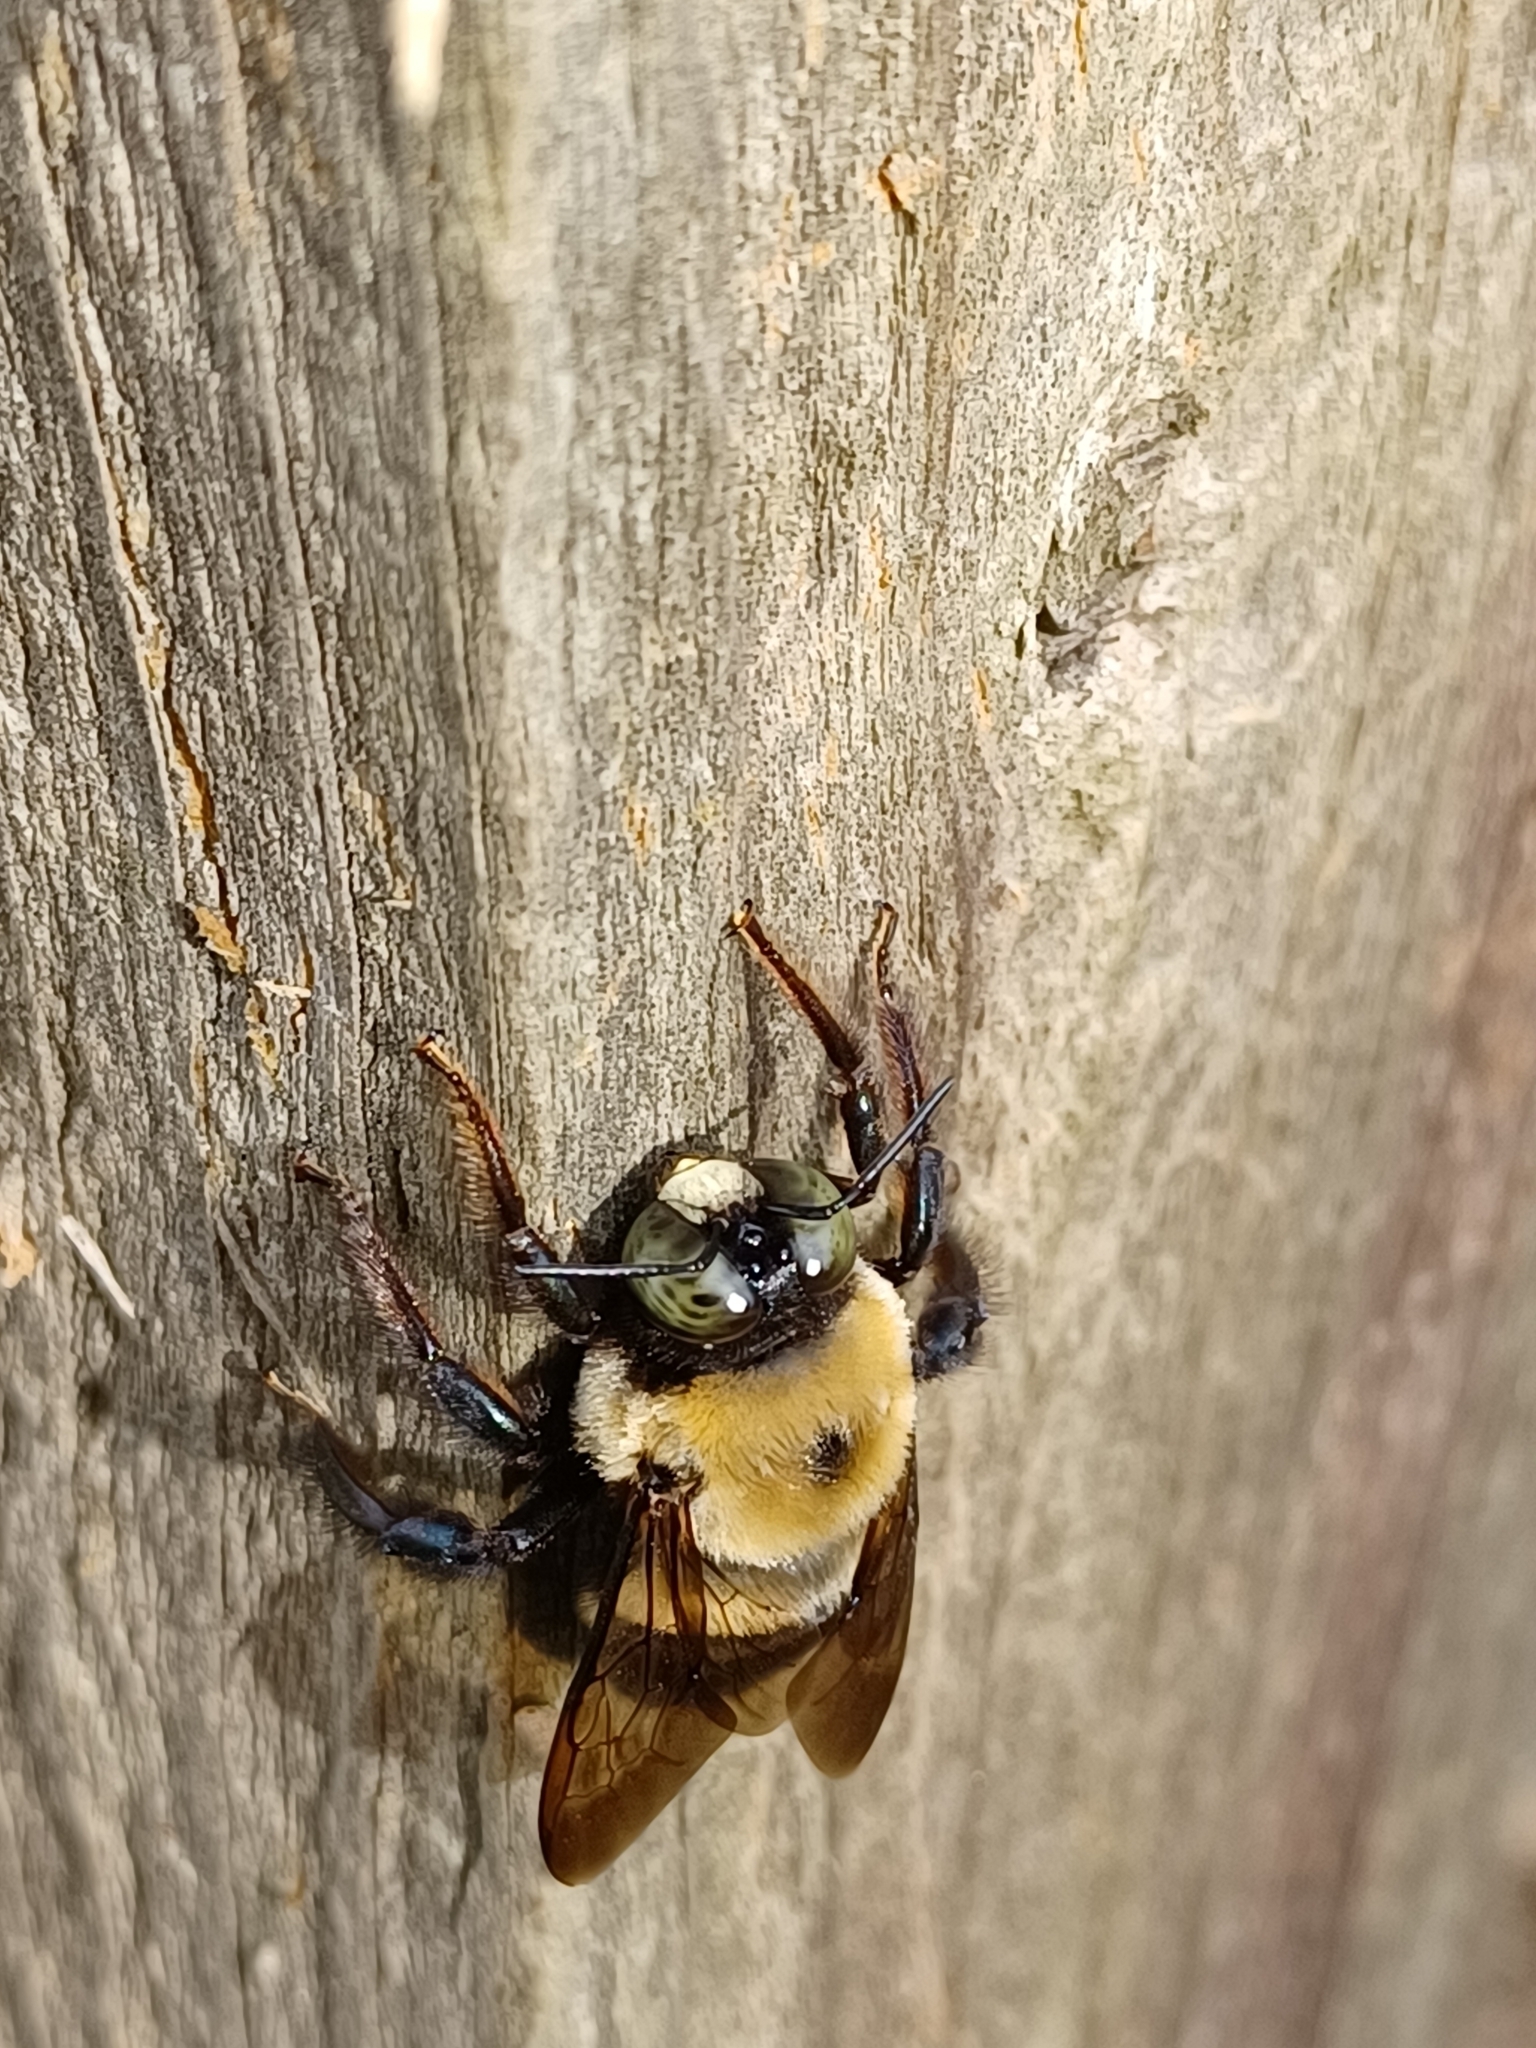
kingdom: Animalia
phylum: Arthropoda
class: Insecta
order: Hymenoptera
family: Apidae
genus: Xylocopa
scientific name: Xylocopa virginica
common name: Carpenter bee
